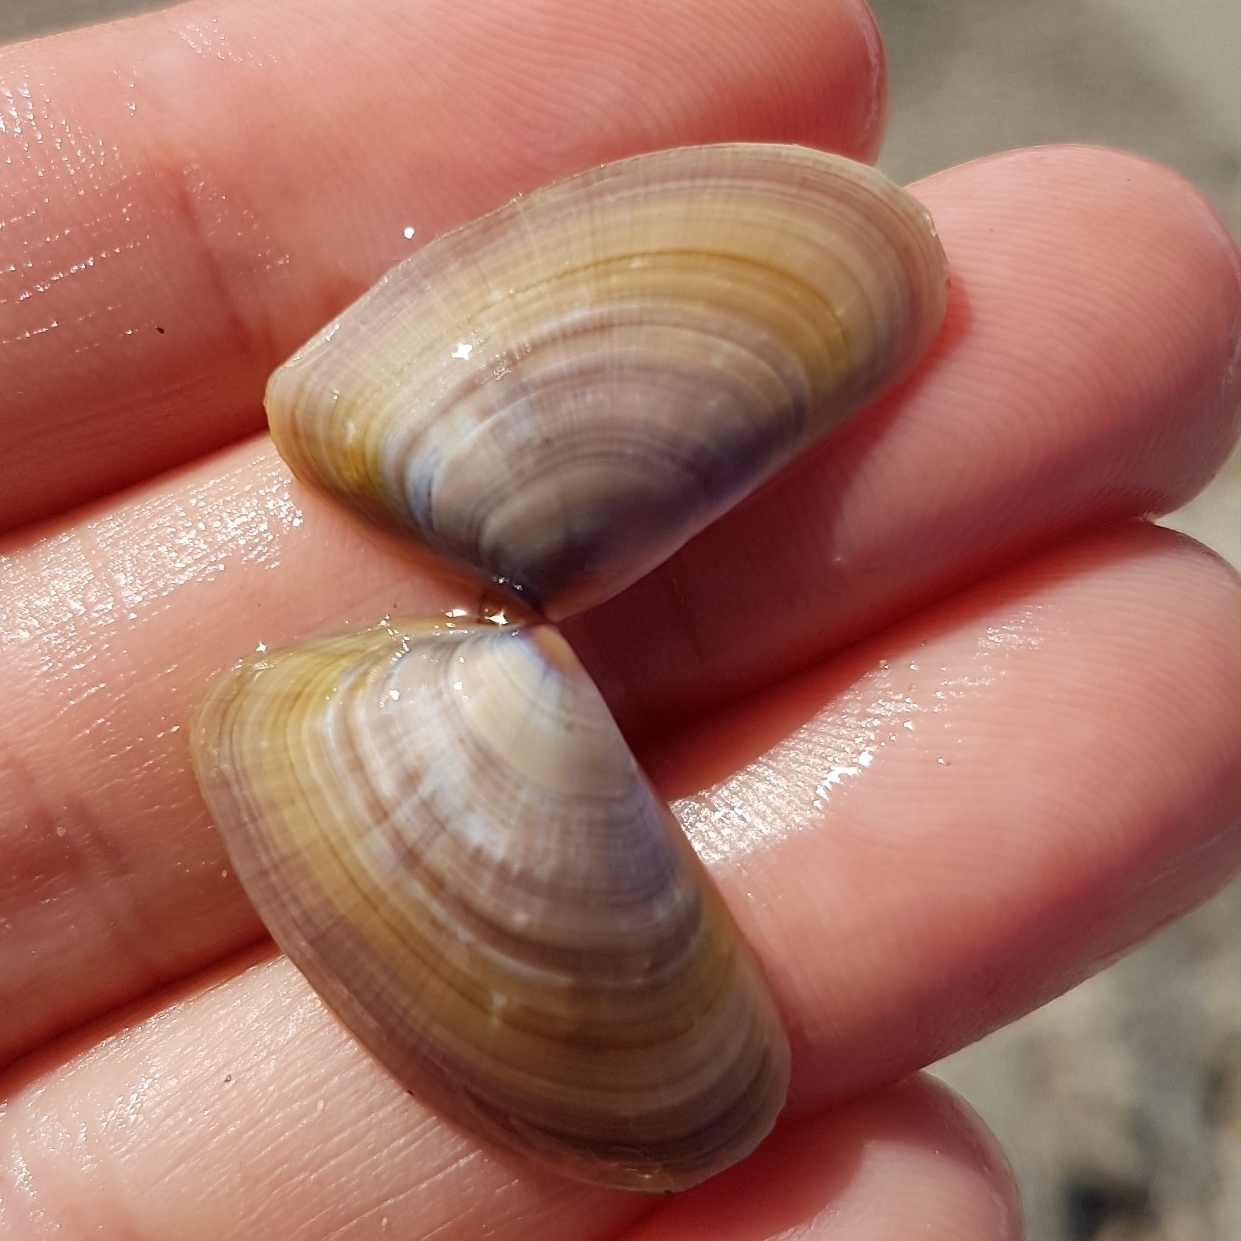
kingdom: Animalia
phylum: Mollusca
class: Bivalvia
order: Cardiida
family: Donacidae
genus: Donax
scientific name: Donax trunculus
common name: Truncate donax
